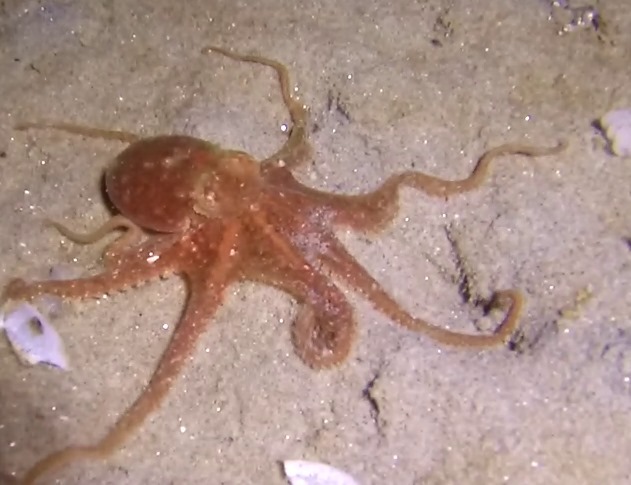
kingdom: Animalia
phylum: Mollusca
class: Cephalopoda
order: Octopoda
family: Octopodidae
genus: Octopus
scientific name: Octopus rubescens
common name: East pacific red octopus
